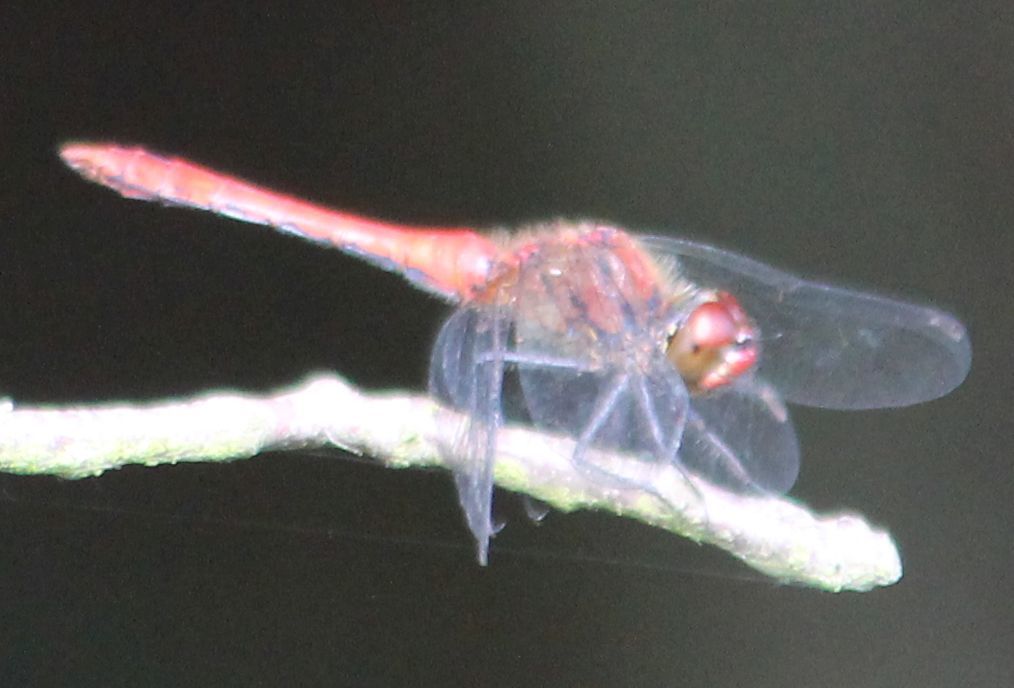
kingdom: Animalia
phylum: Arthropoda
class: Insecta
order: Odonata
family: Libellulidae
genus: Sympetrum
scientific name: Sympetrum sanguineum
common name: Ruddy darter
